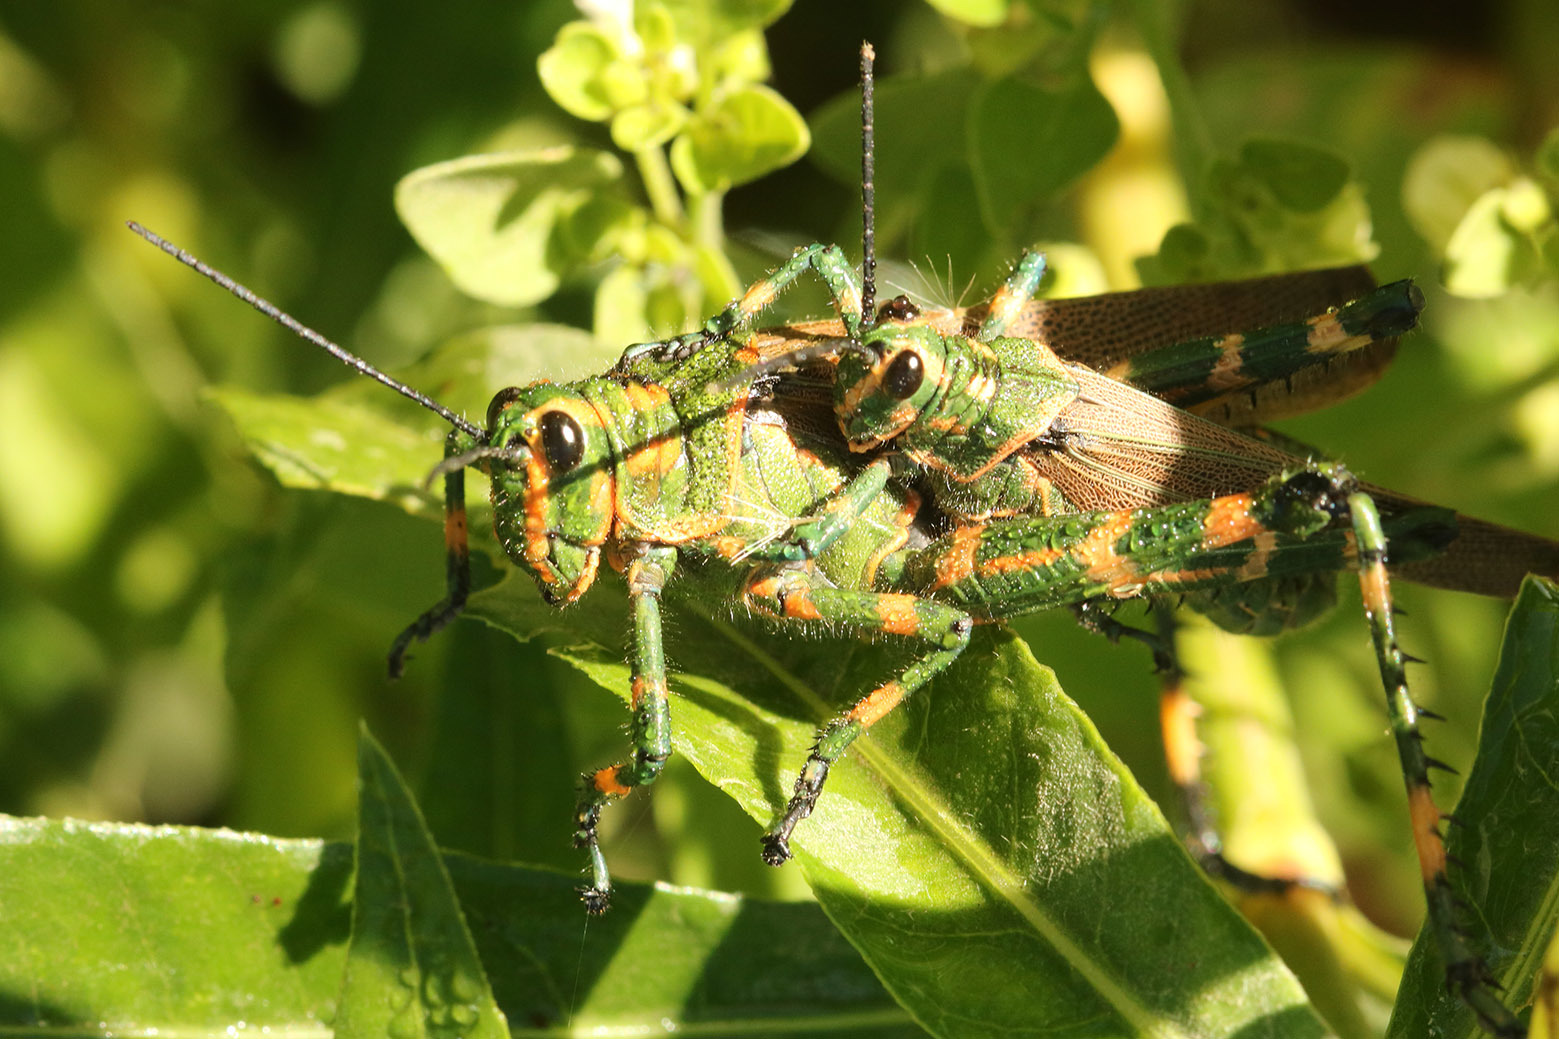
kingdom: Animalia
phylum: Arthropoda
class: Insecta
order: Orthoptera
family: Romaleidae
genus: Chromacris
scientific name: Chromacris speciosa
